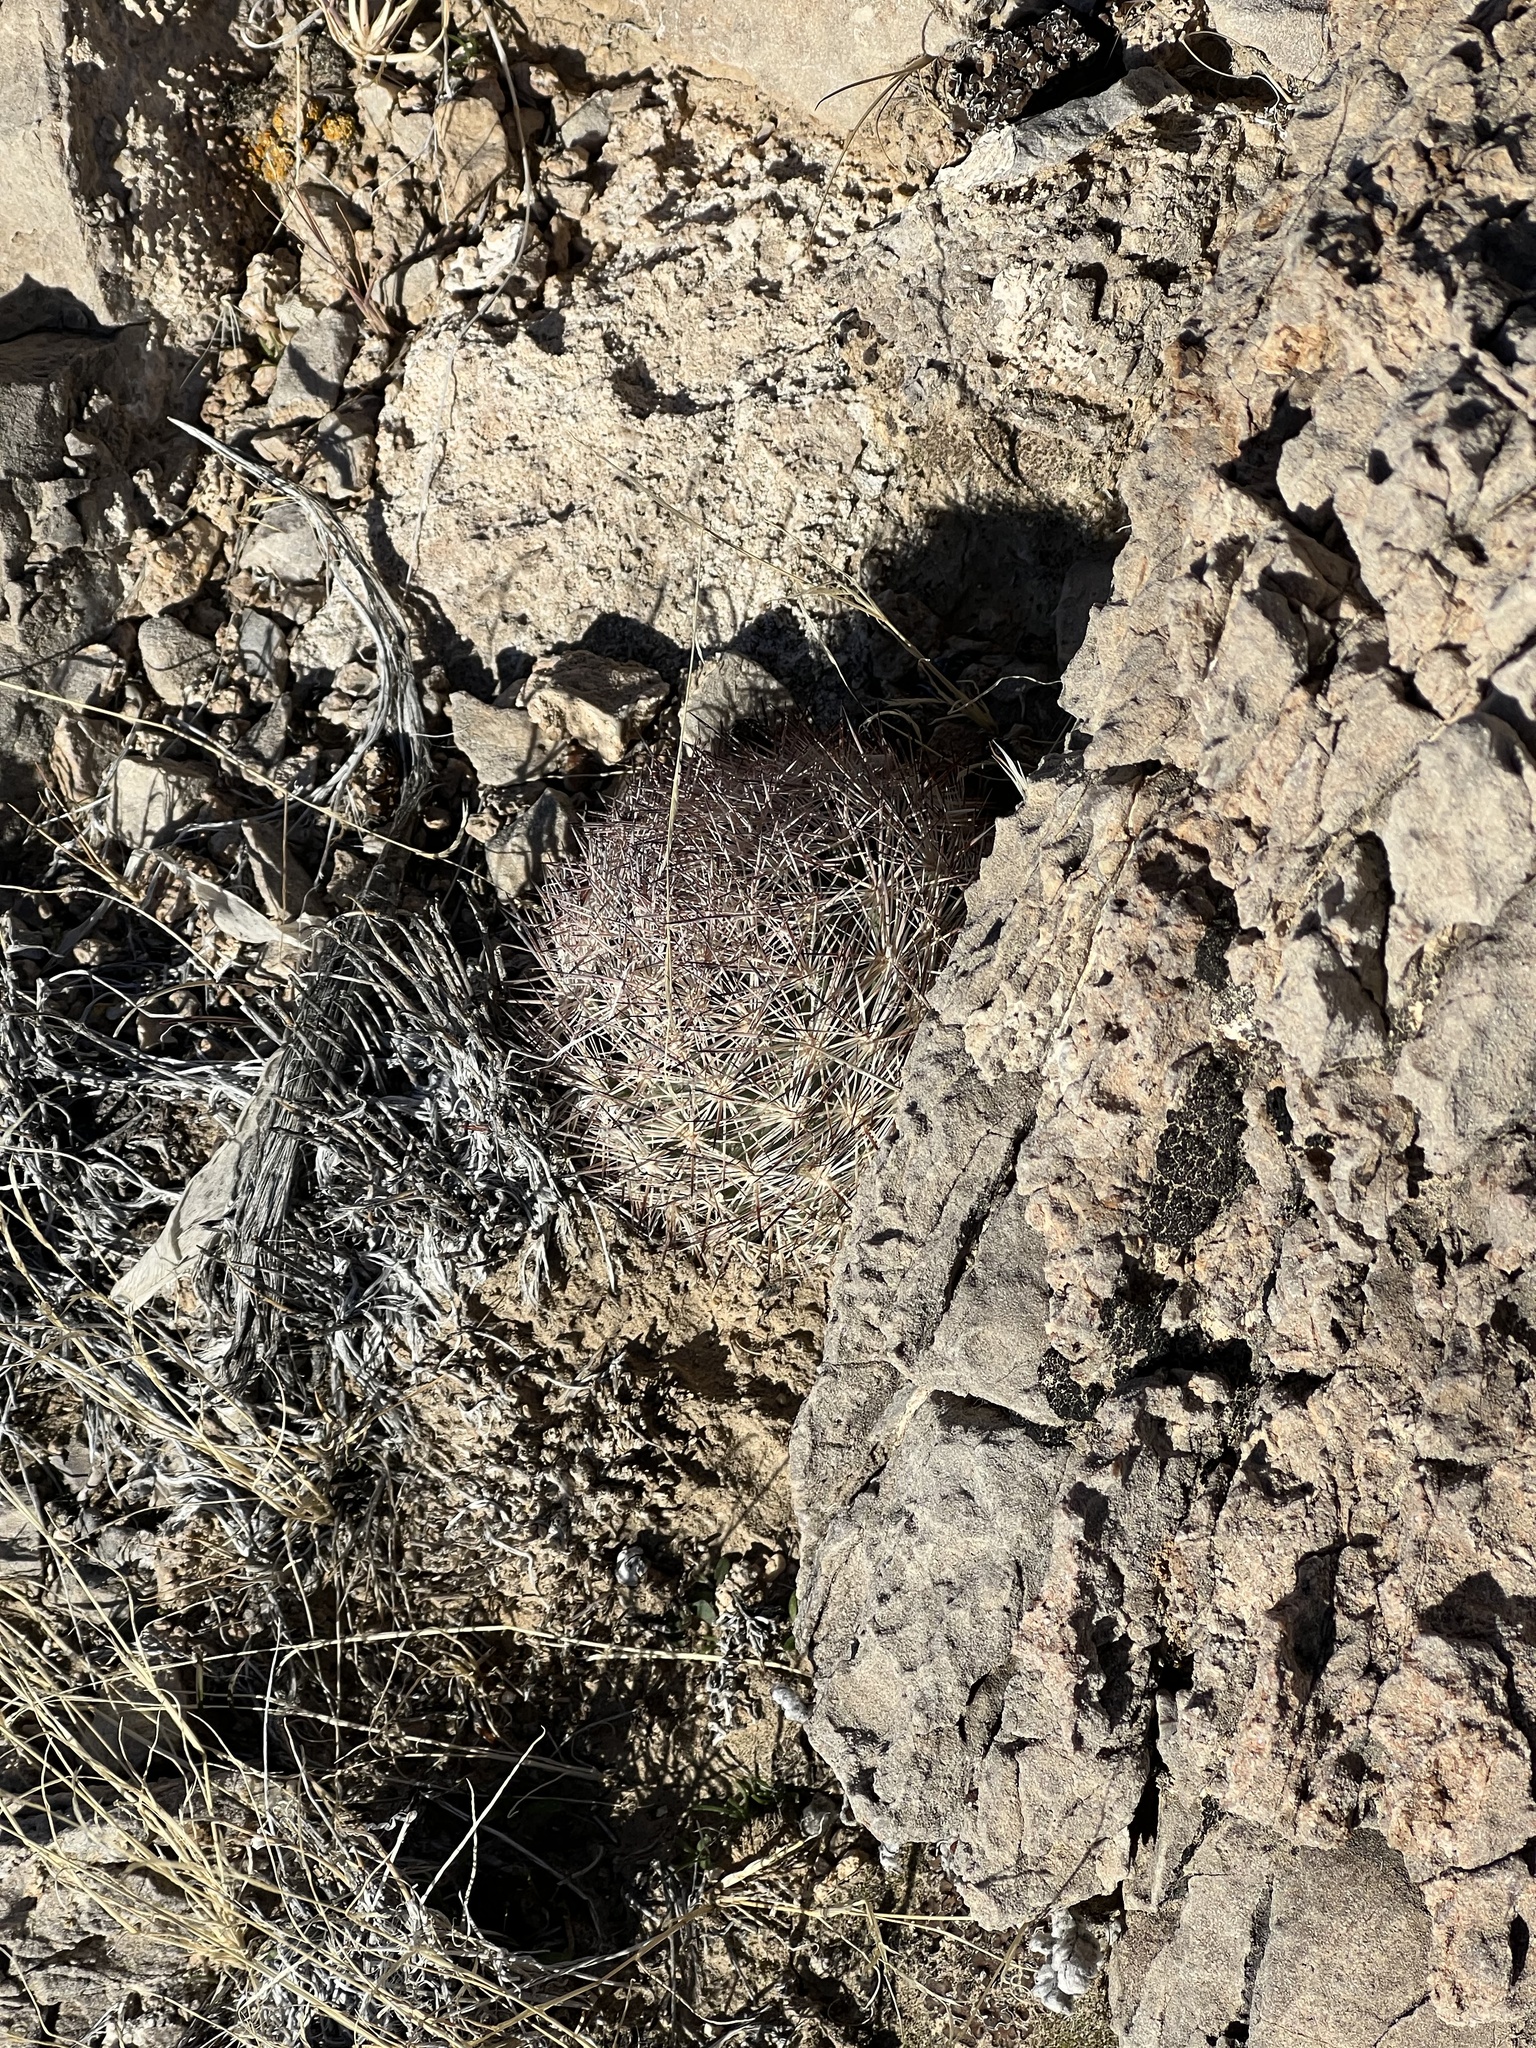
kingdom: Plantae
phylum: Tracheophyta
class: Magnoliopsida
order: Caryophyllales
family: Cactaceae
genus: Pelecyphora
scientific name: Pelecyphora dasyacantha
